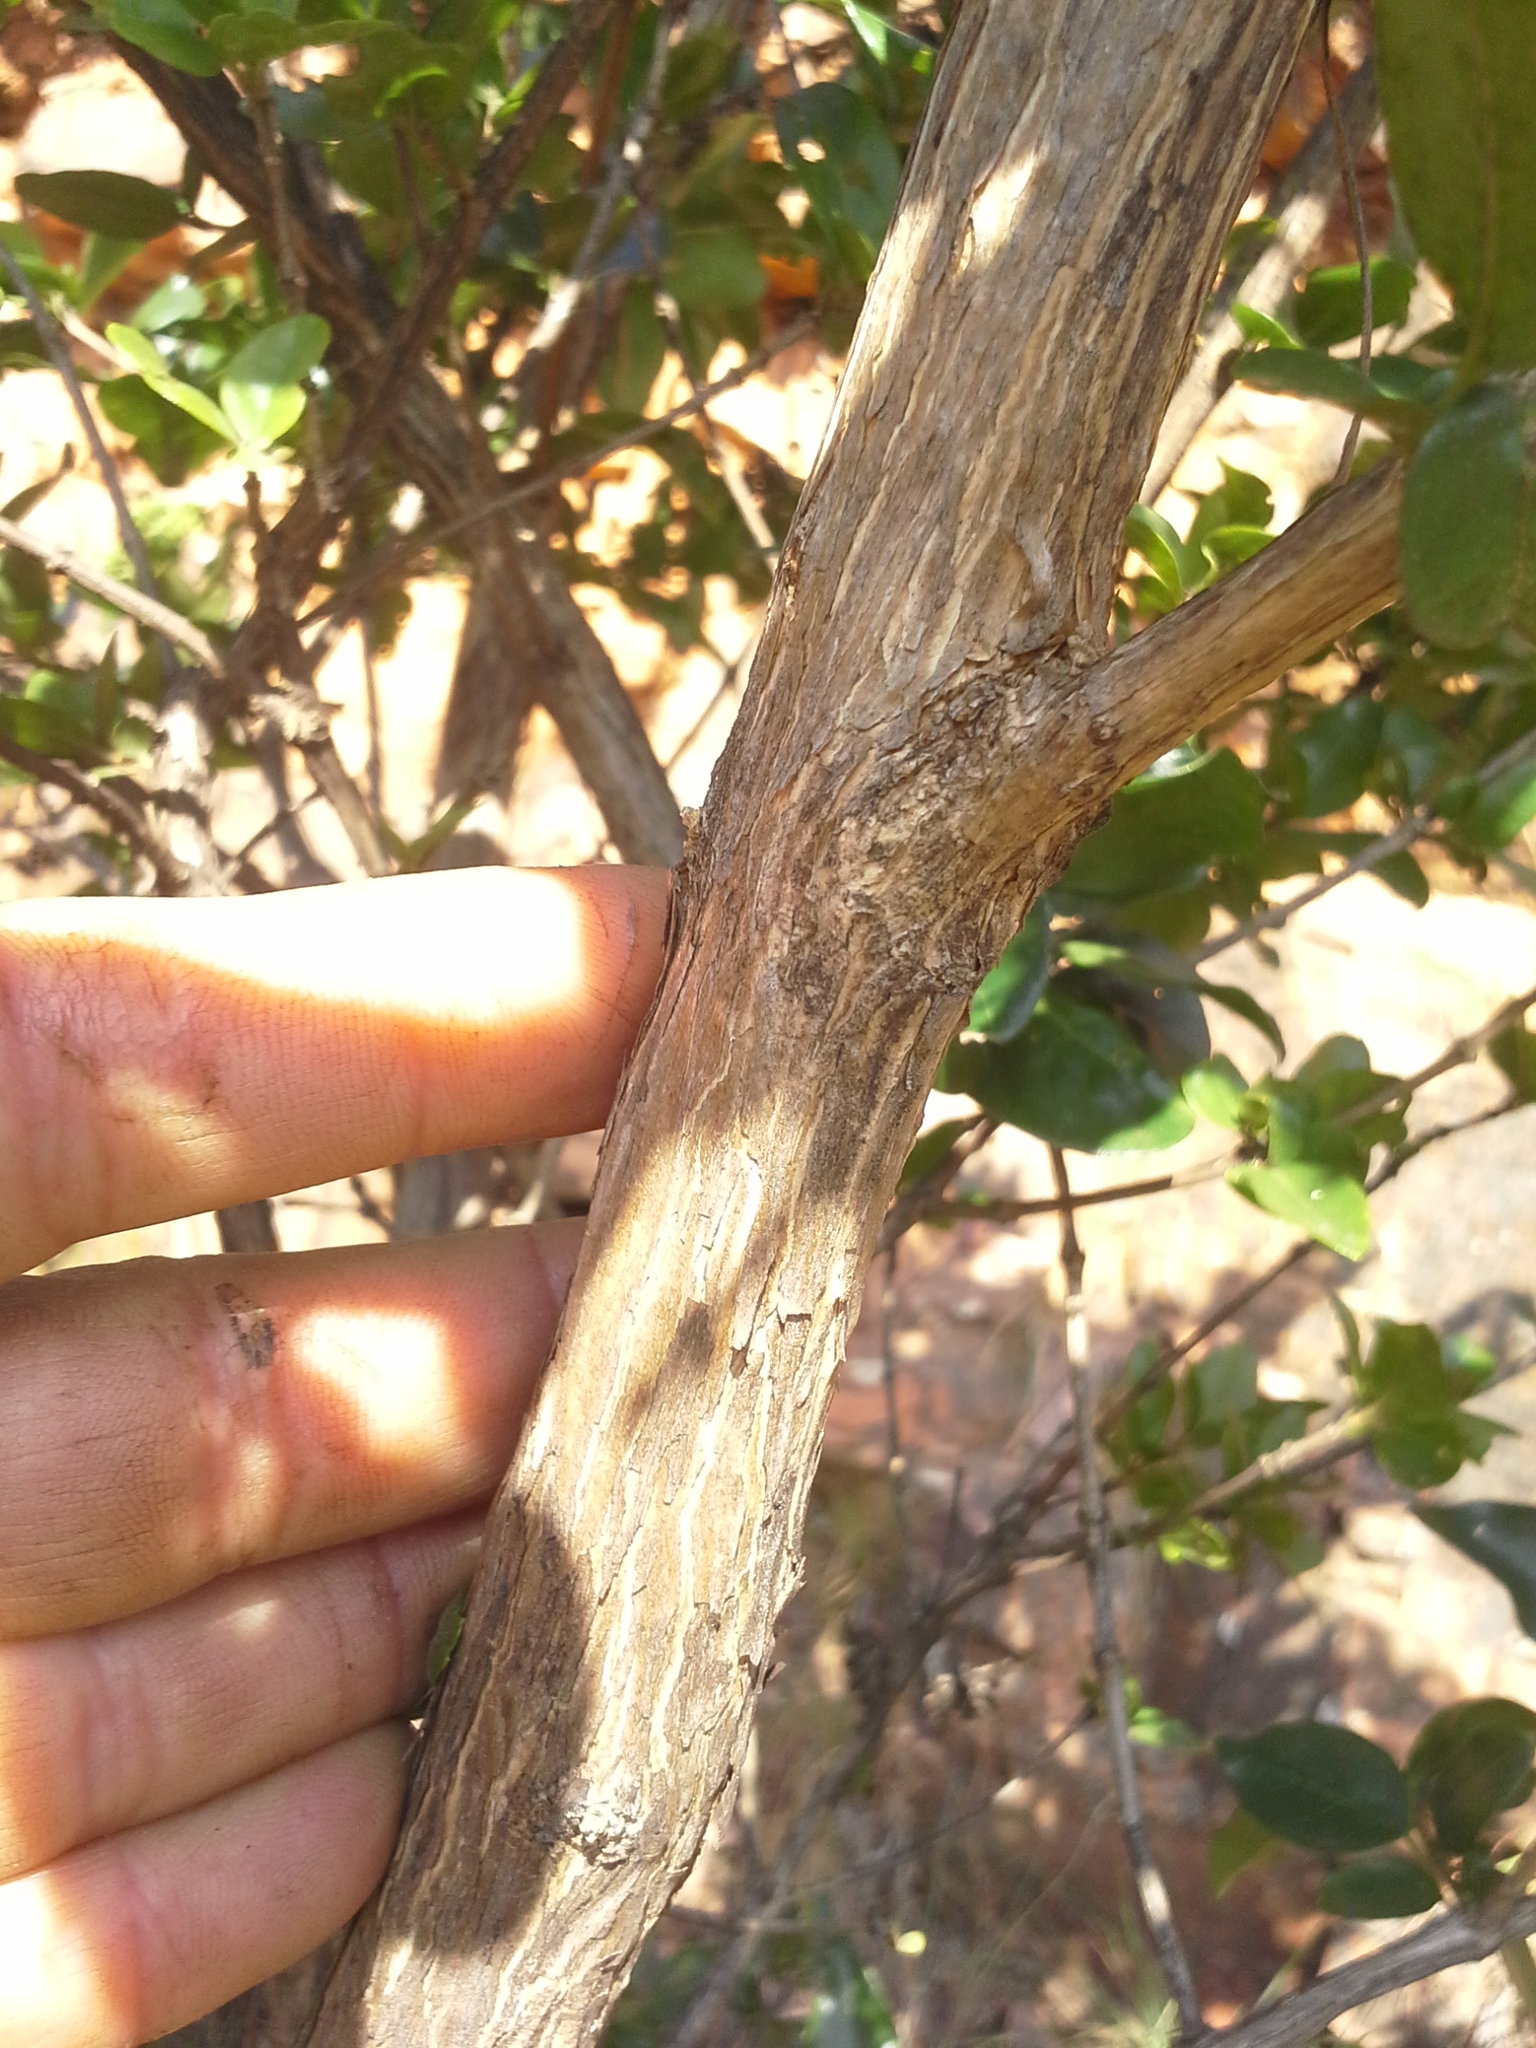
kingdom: Plantae
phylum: Tracheophyta
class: Magnoliopsida
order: Lamiales
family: Stilbaceae
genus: Nuxia
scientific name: Nuxia congesta
